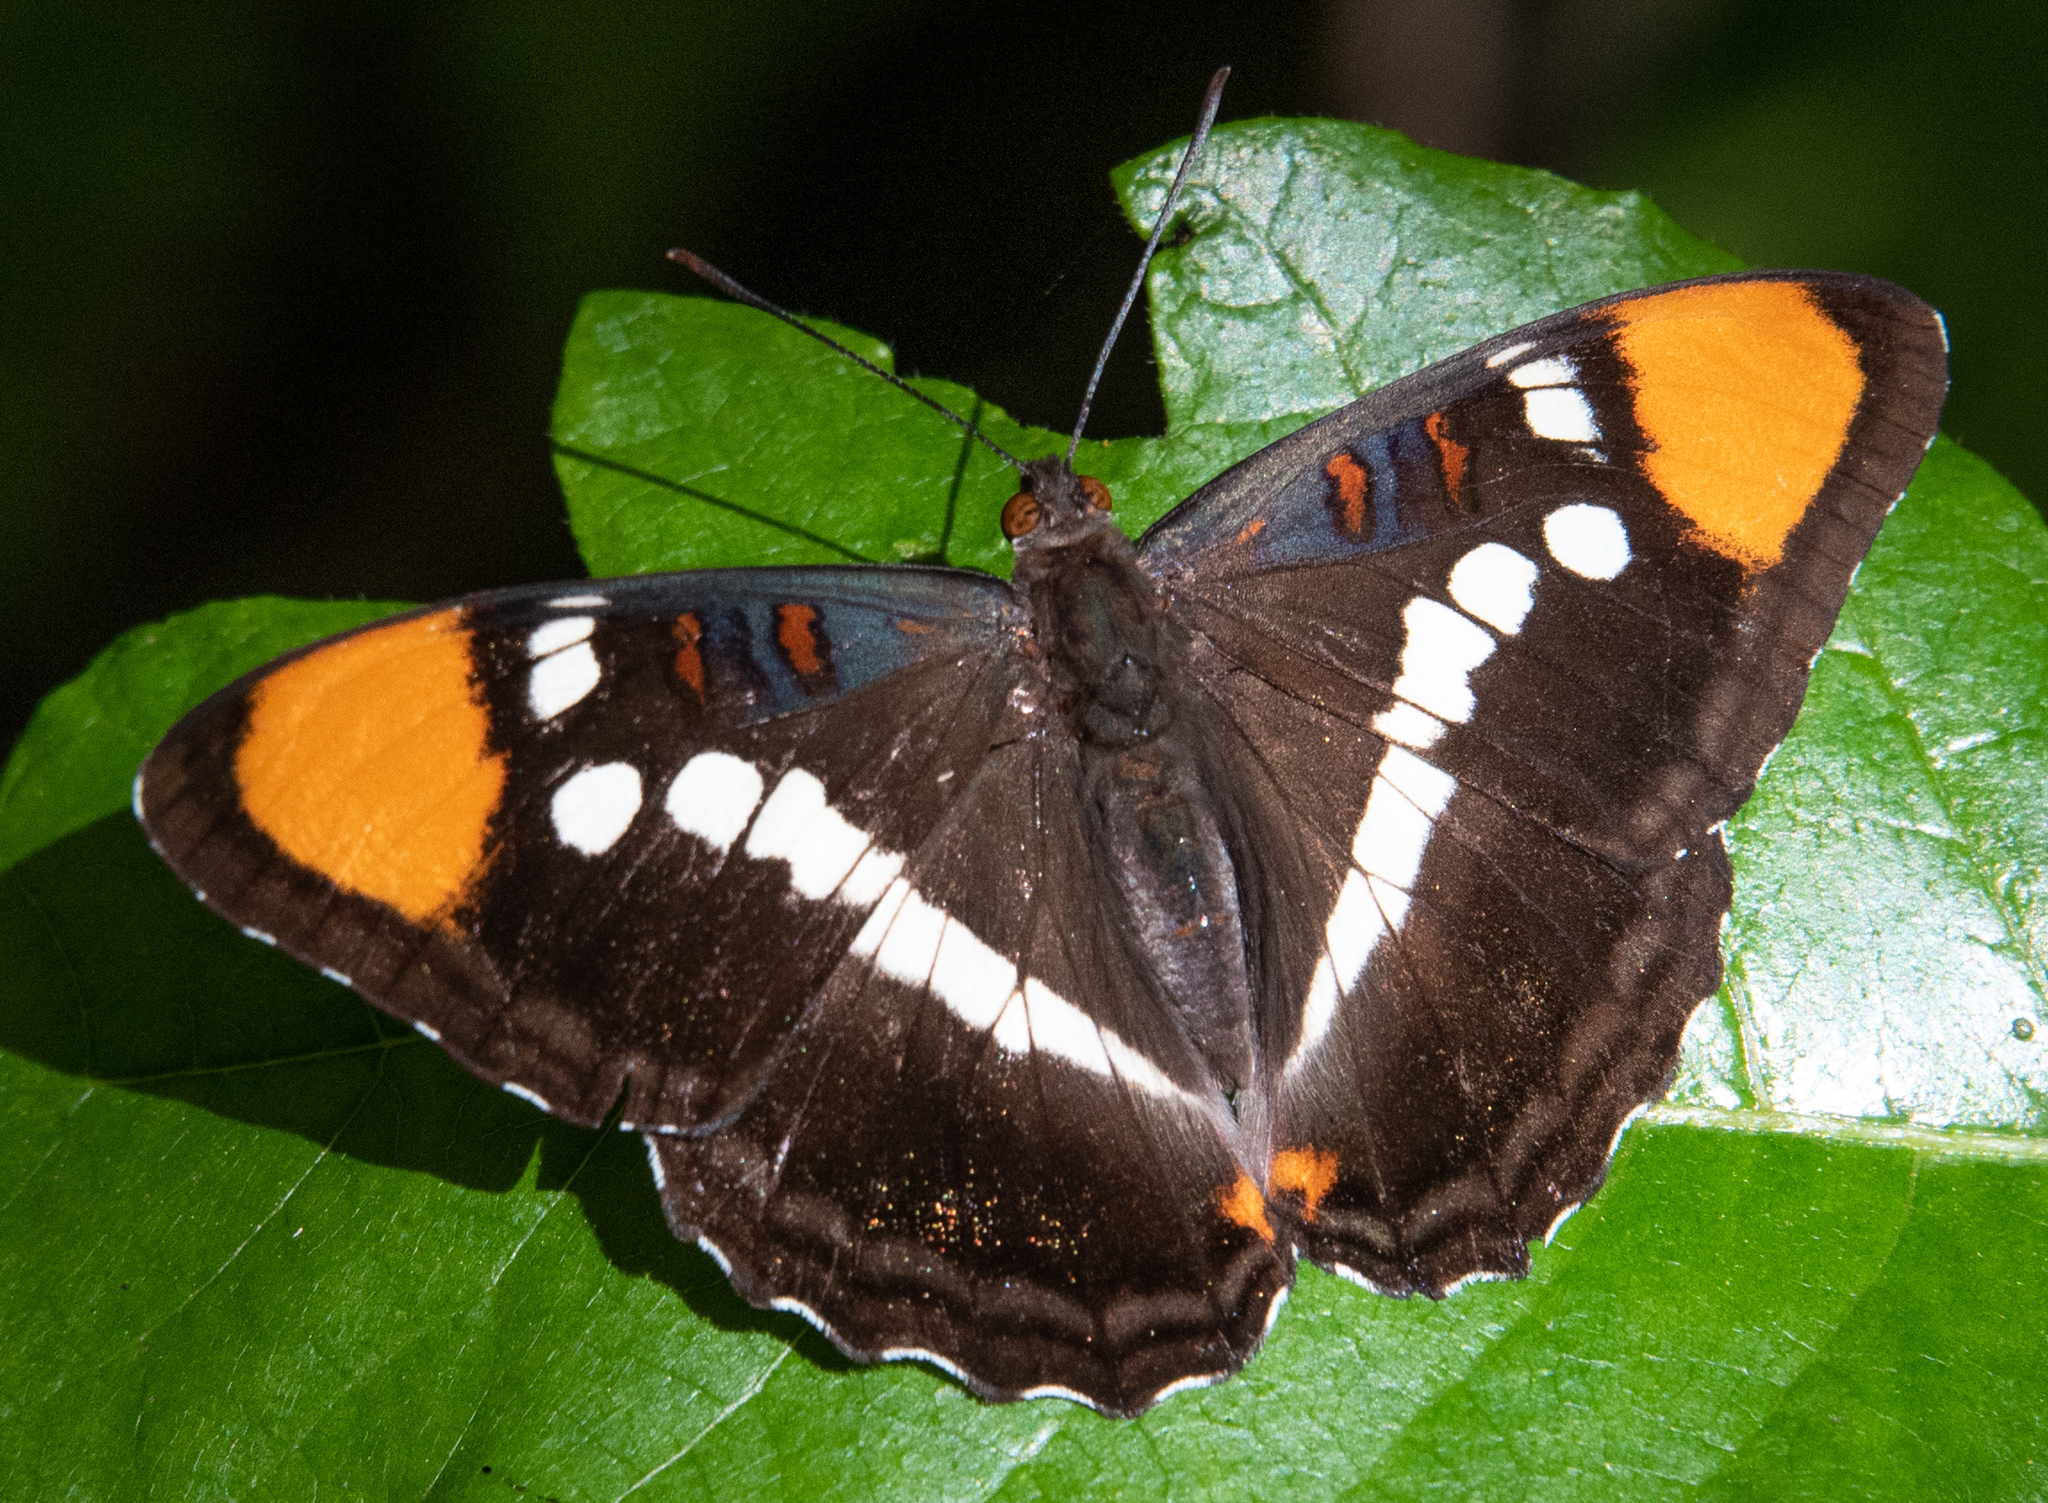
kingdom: Animalia
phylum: Arthropoda
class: Insecta
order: Lepidoptera
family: Nymphalidae
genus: Limenitis
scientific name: Limenitis bredowii
